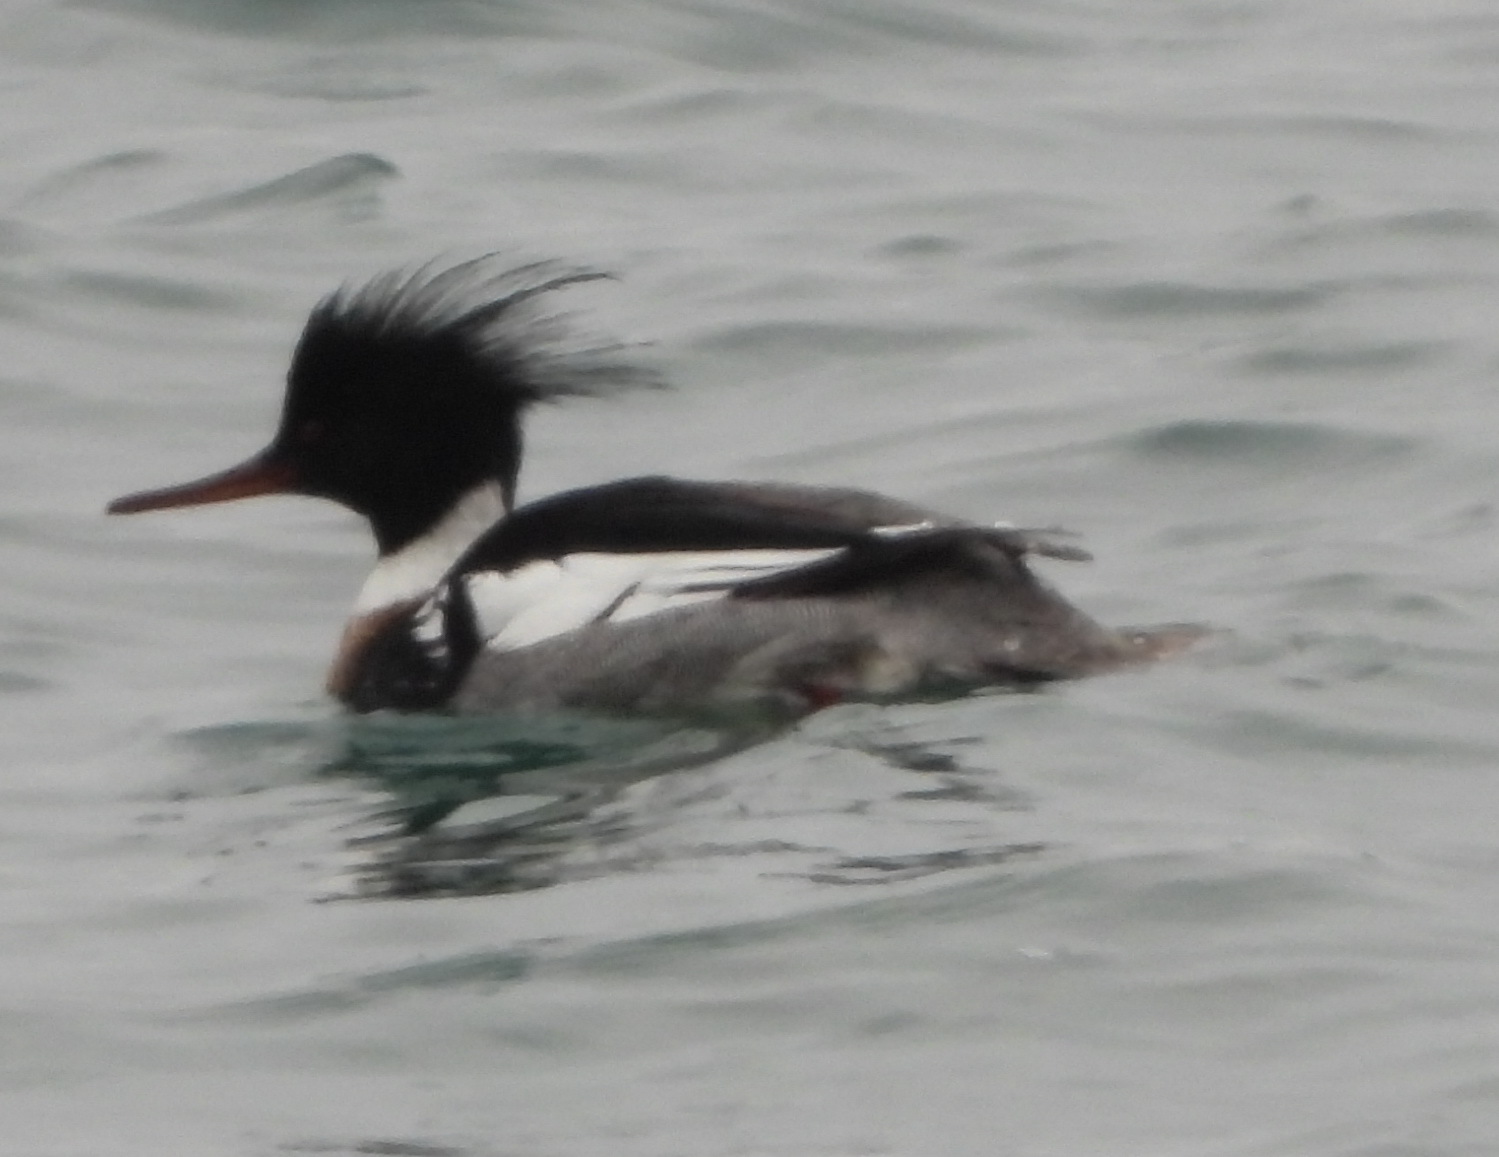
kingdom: Animalia
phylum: Chordata
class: Aves
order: Anseriformes
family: Anatidae
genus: Mergus
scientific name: Mergus serrator
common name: Red-breasted merganser
